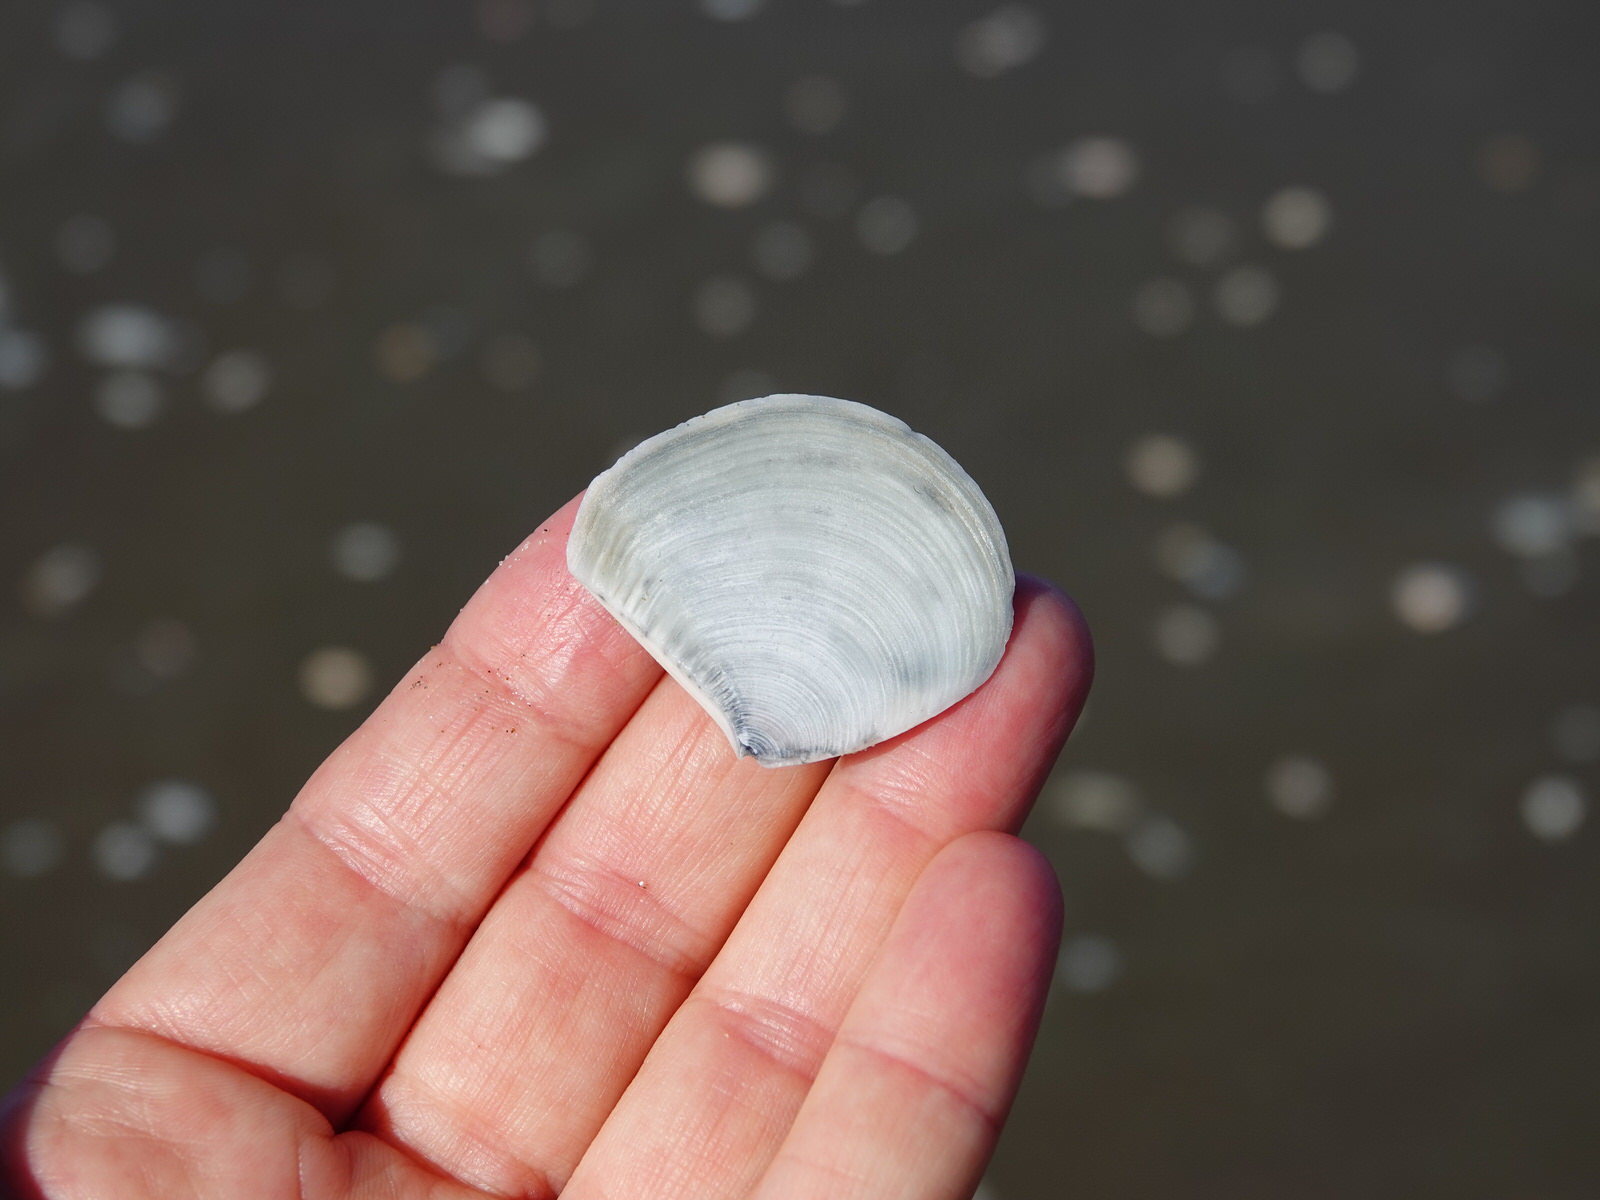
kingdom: Animalia
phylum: Mollusca
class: Bivalvia
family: Myochamidae
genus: Myadora
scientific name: Myadora striata
